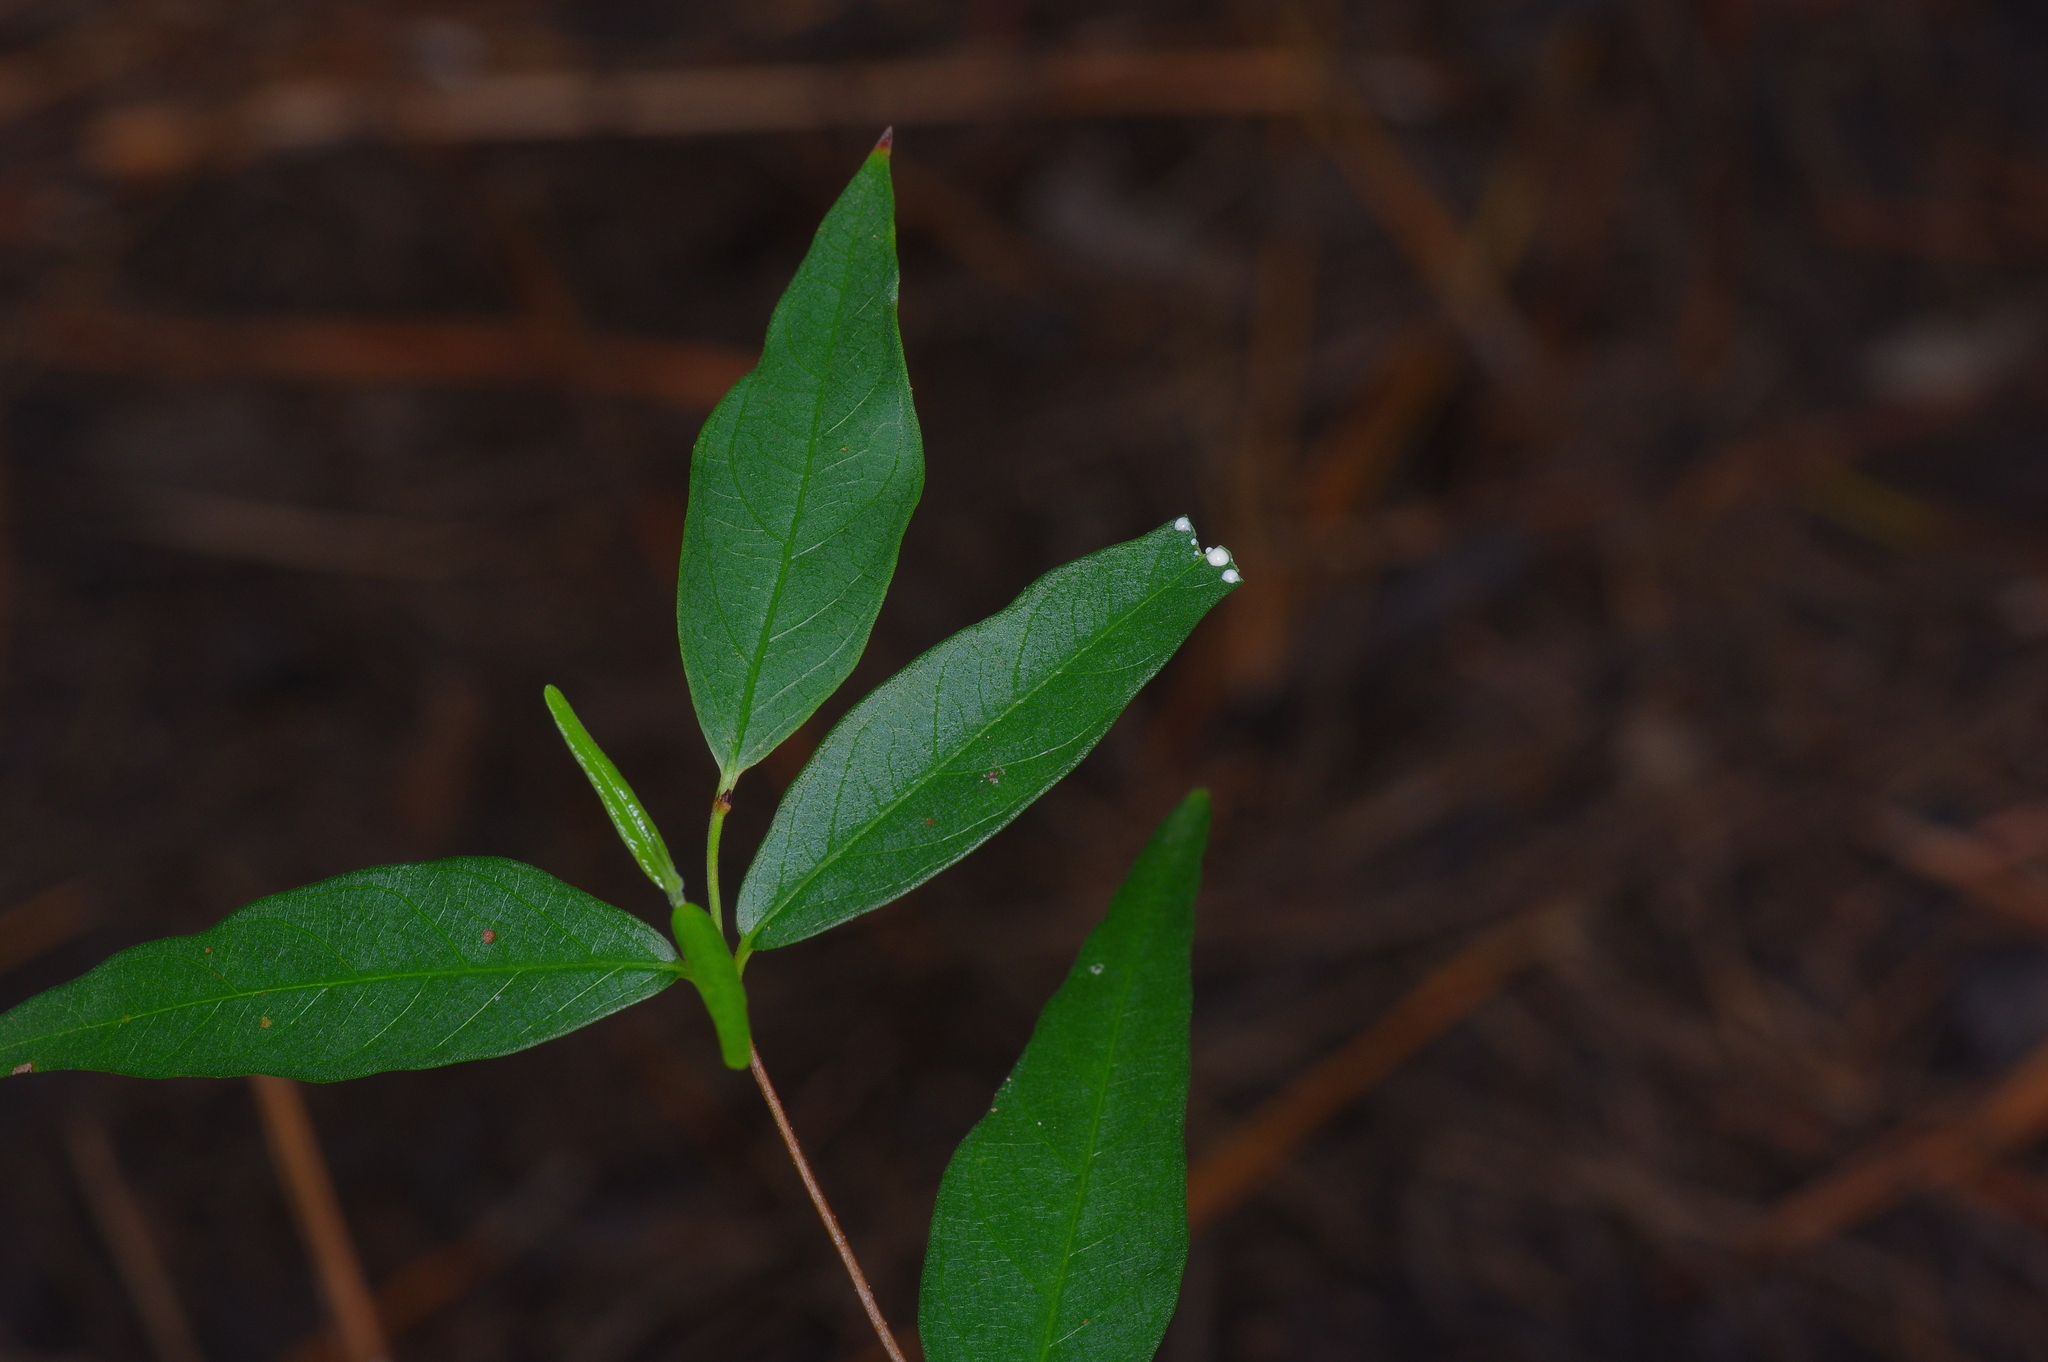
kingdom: Plantae
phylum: Tracheophyta
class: Magnoliopsida
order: Gentianales
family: Apocynaceae
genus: Thyrsanthella
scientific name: Thyrsanthella difformis
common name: Climbing dogbane
